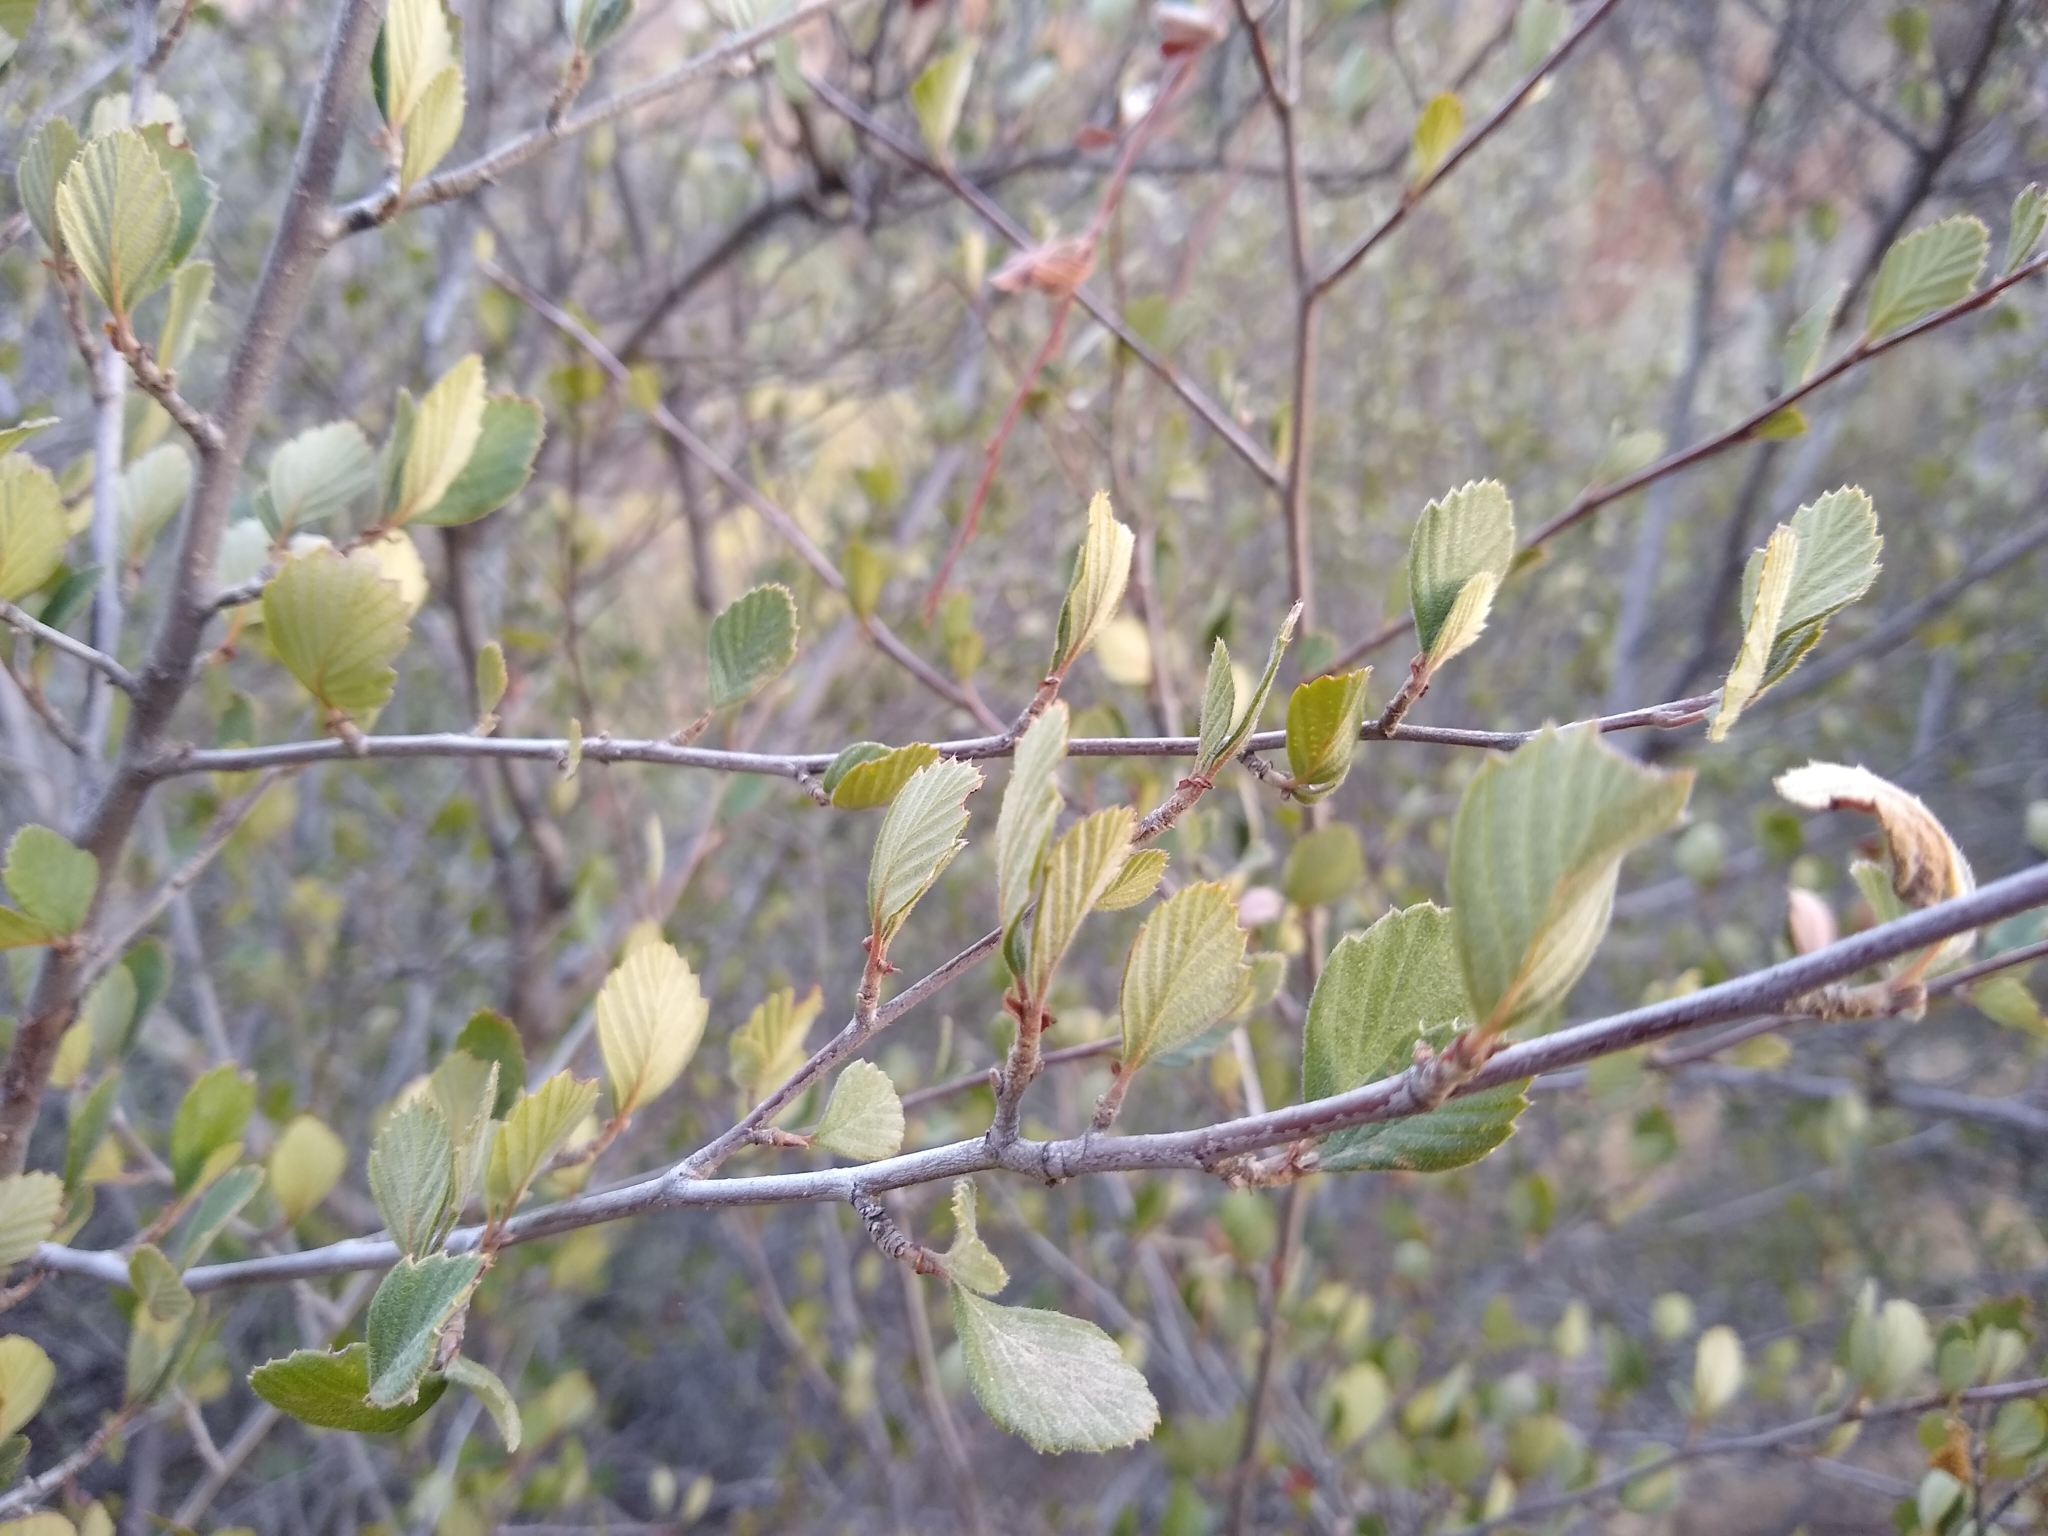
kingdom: Plantae
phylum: Tracheophyta
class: Magnoliopsida
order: Rosales
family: Rosaceae
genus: Cercocarpus
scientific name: Cercocarpus betuloides
